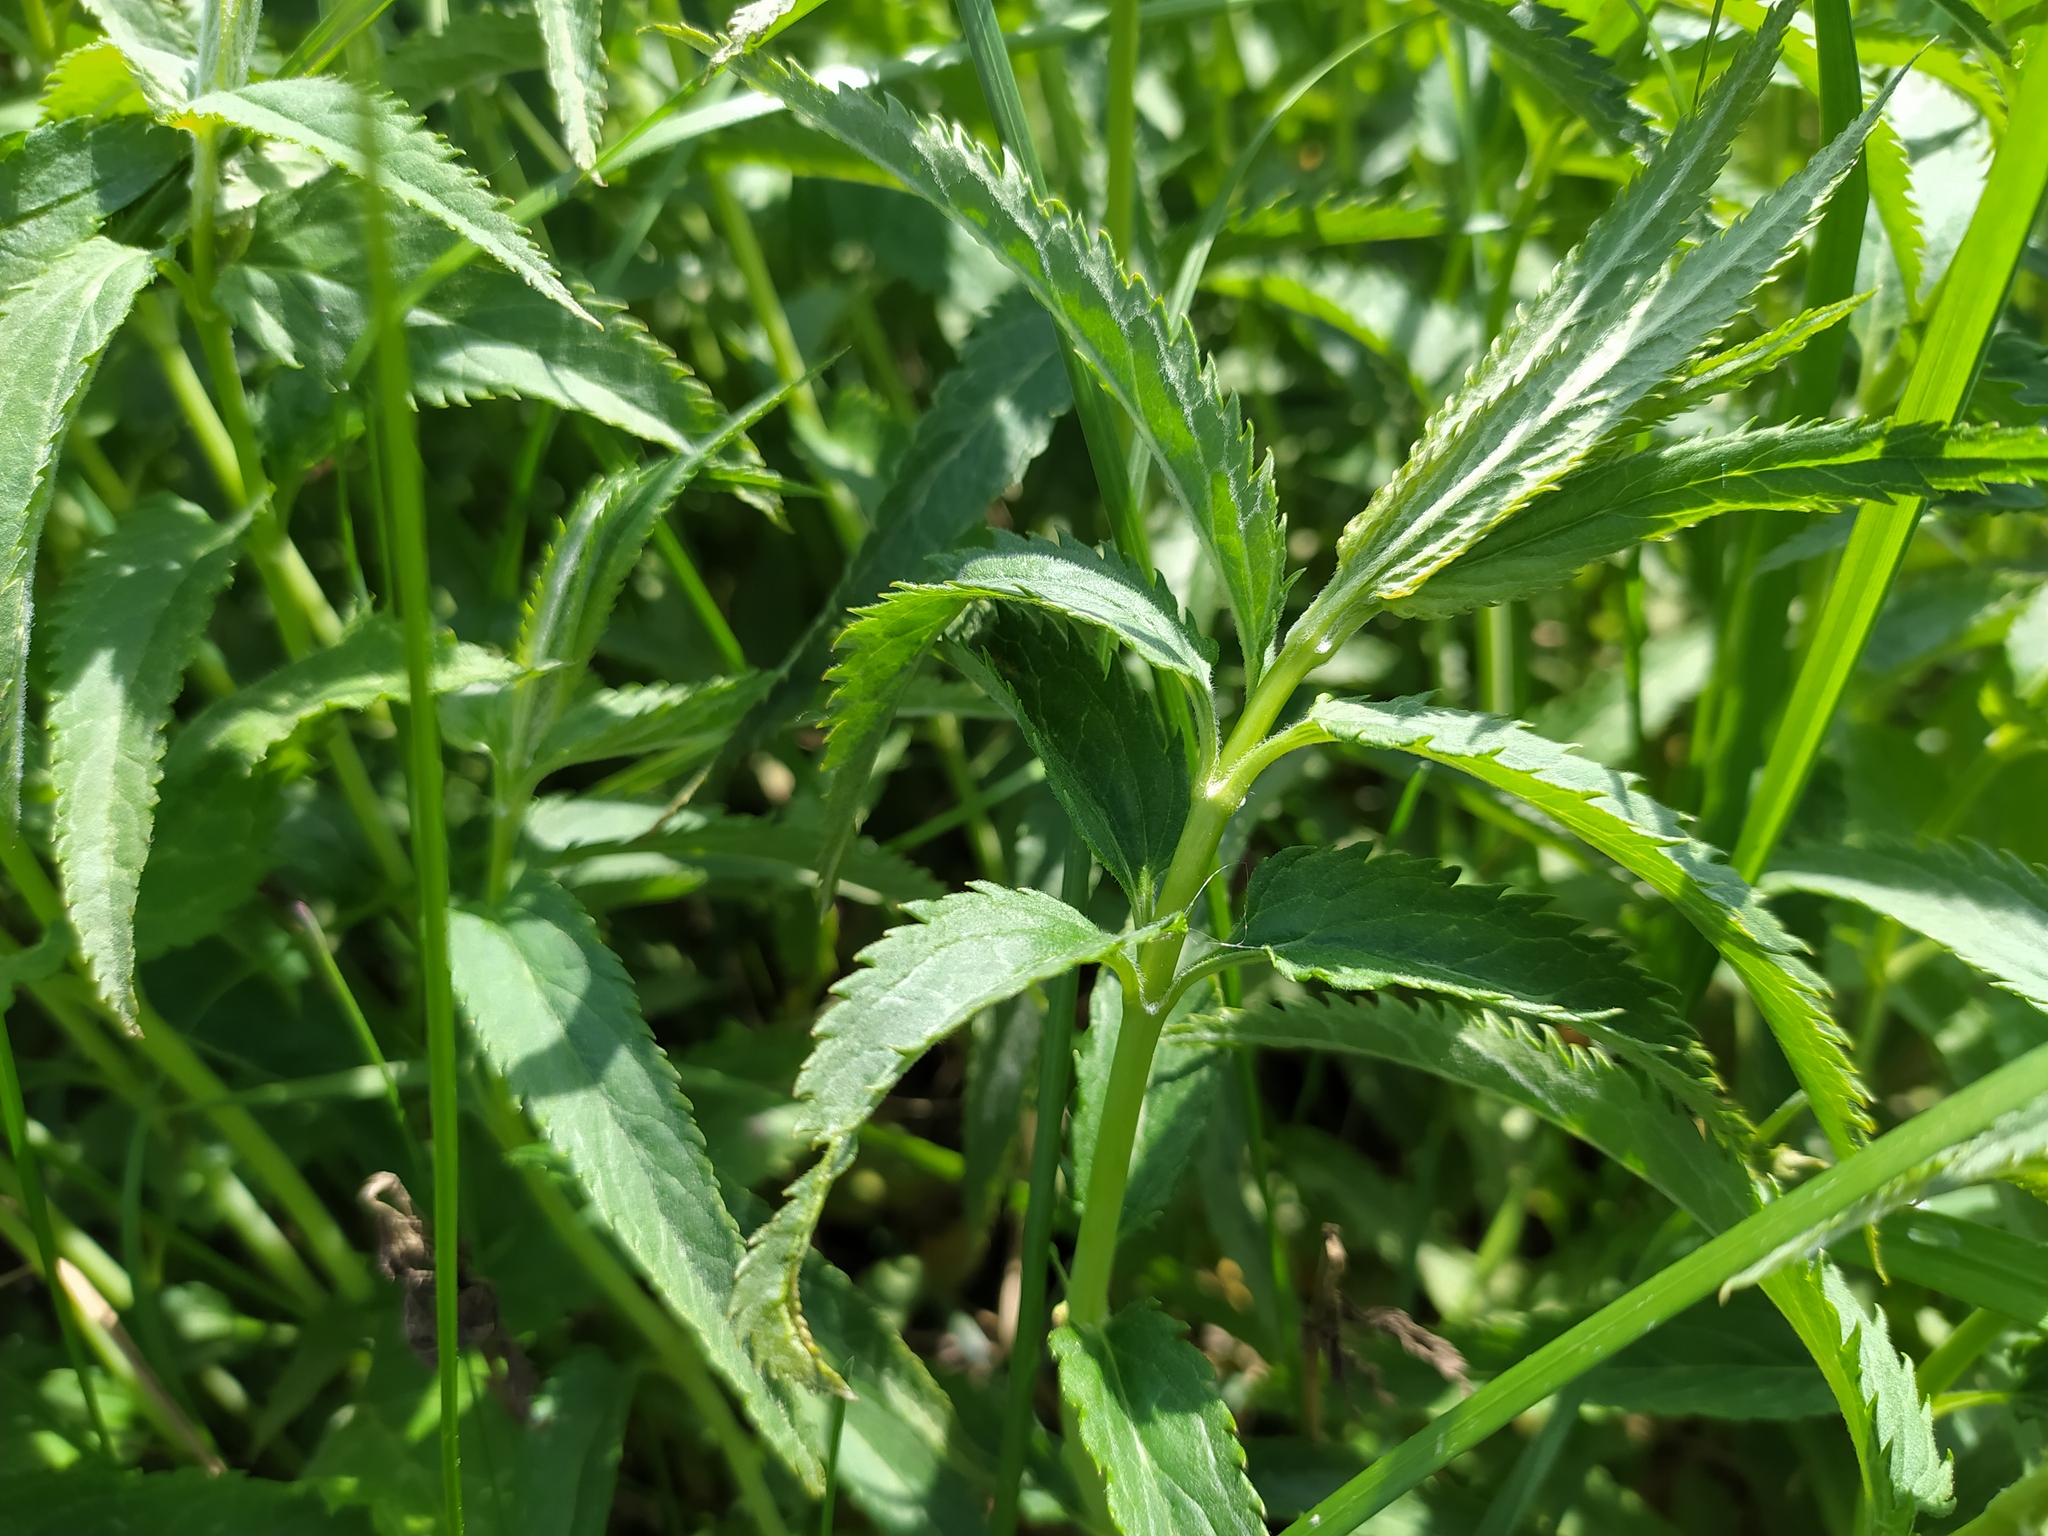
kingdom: Plantae
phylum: Tracheophyta
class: Magnoliopsida
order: Lamiales
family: Plantaginaceae
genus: Veronica
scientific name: Veronica longifolia
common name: Garden speedwell
